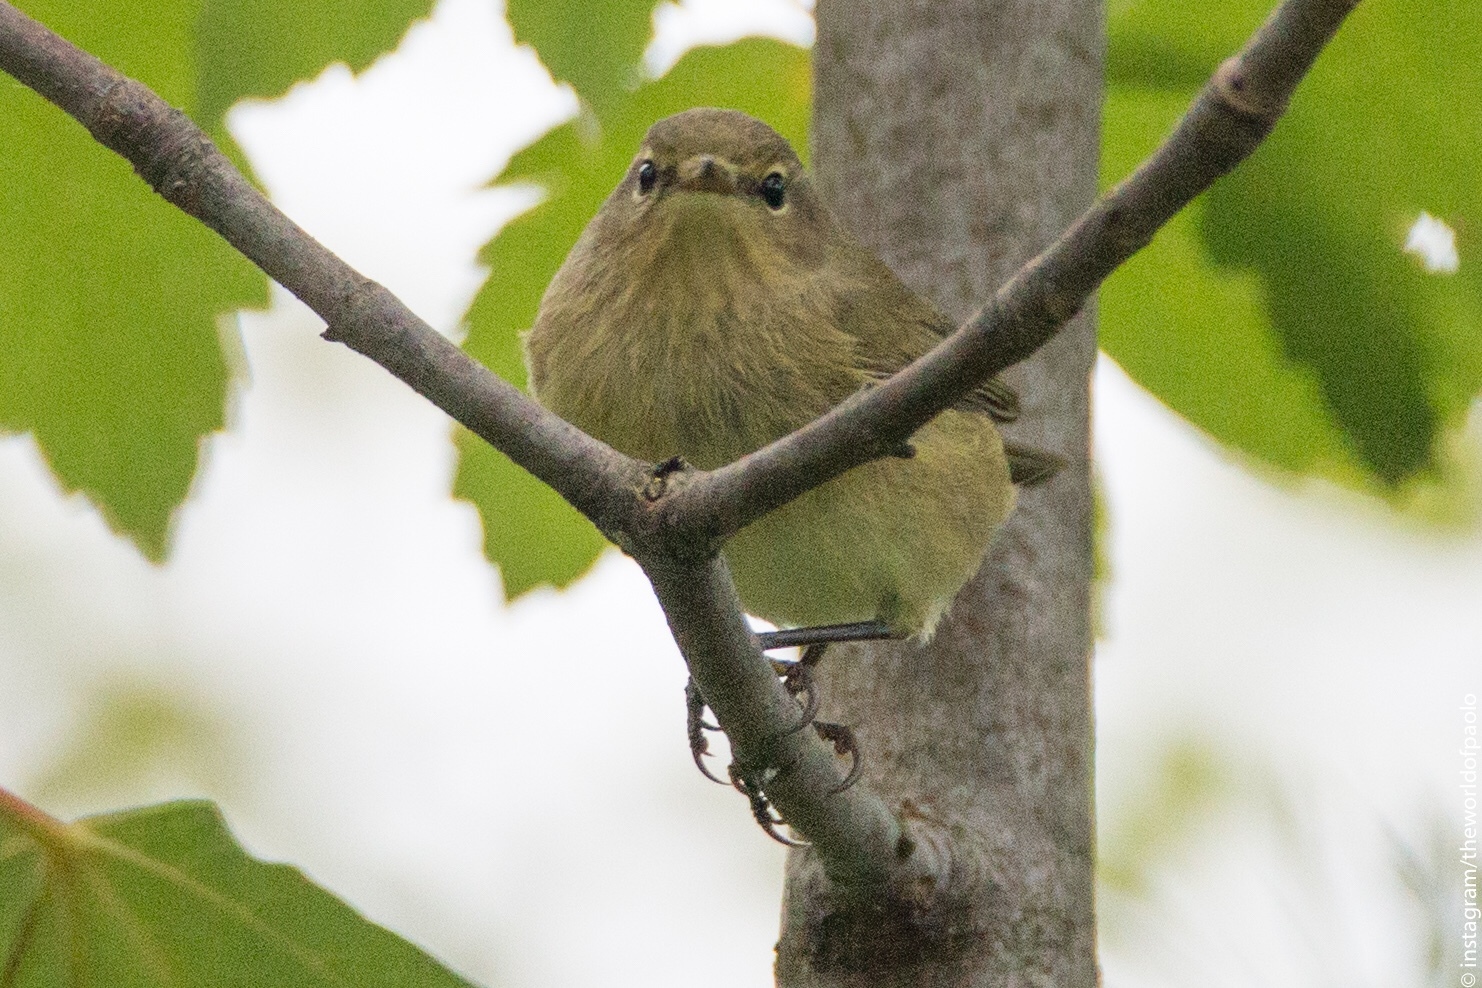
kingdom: Animalia
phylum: Chordata
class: Aves
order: Passeriformes
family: Phylloscopidae
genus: Phylloscopus
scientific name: Phylloscopus collybita
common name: Common chiffchaff
